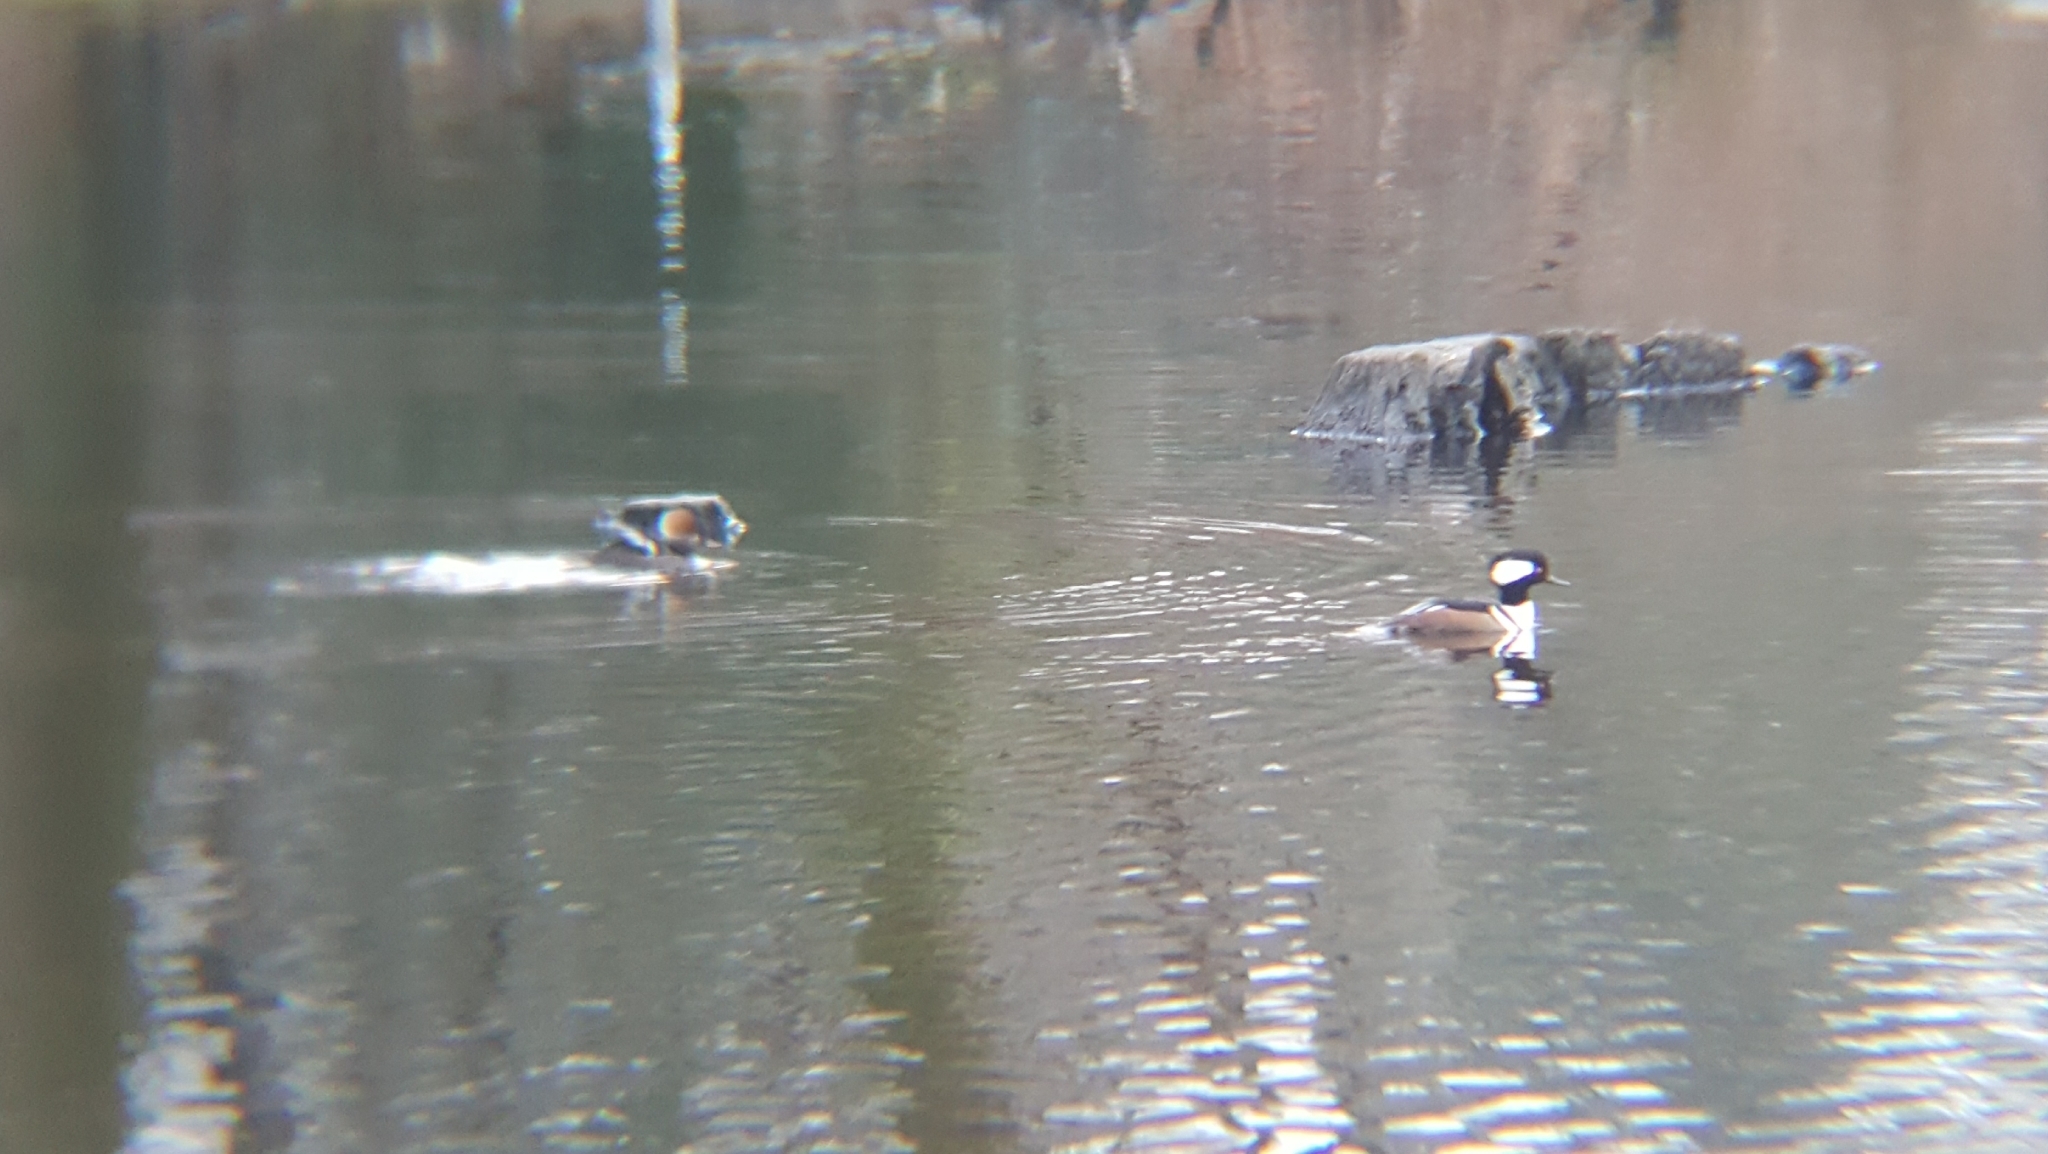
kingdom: Animalia
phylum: Chordata
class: Aves
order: Anseriformes
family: Anatidae
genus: Lophodytes
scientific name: Lophodytes cucullatus
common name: Hooded merganser
